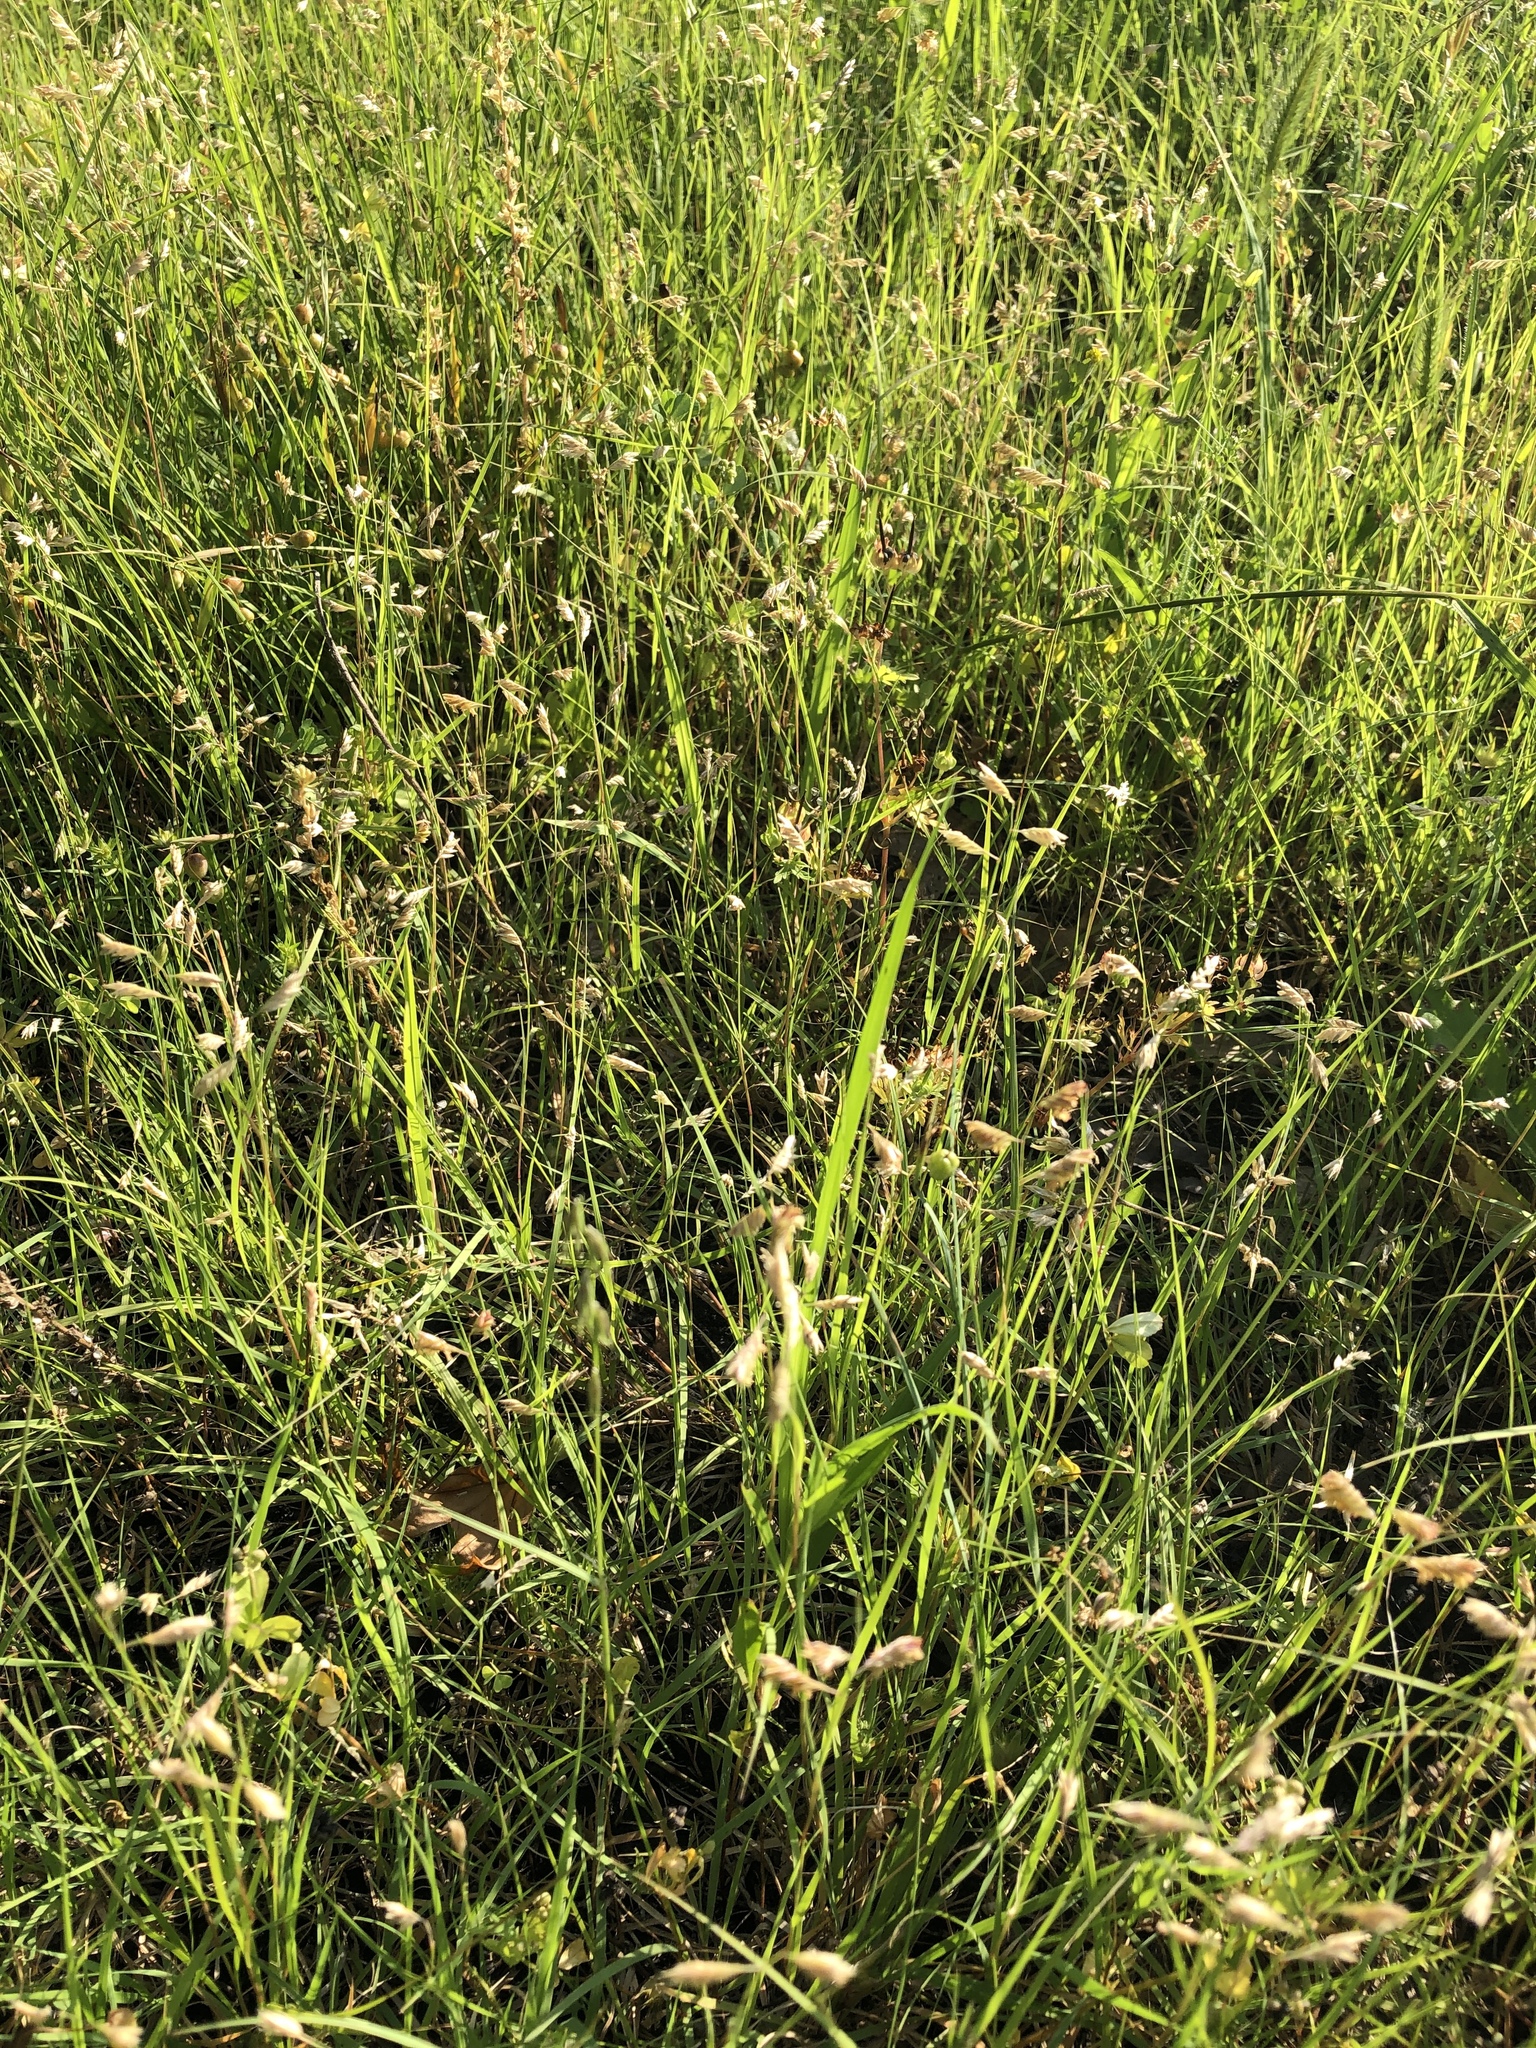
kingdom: Plantae
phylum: Tracheophyta
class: Liliopsida
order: Poales
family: Poaceae
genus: Bouteloua
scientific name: Bouteloua dactyloides
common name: Buffalo grass
